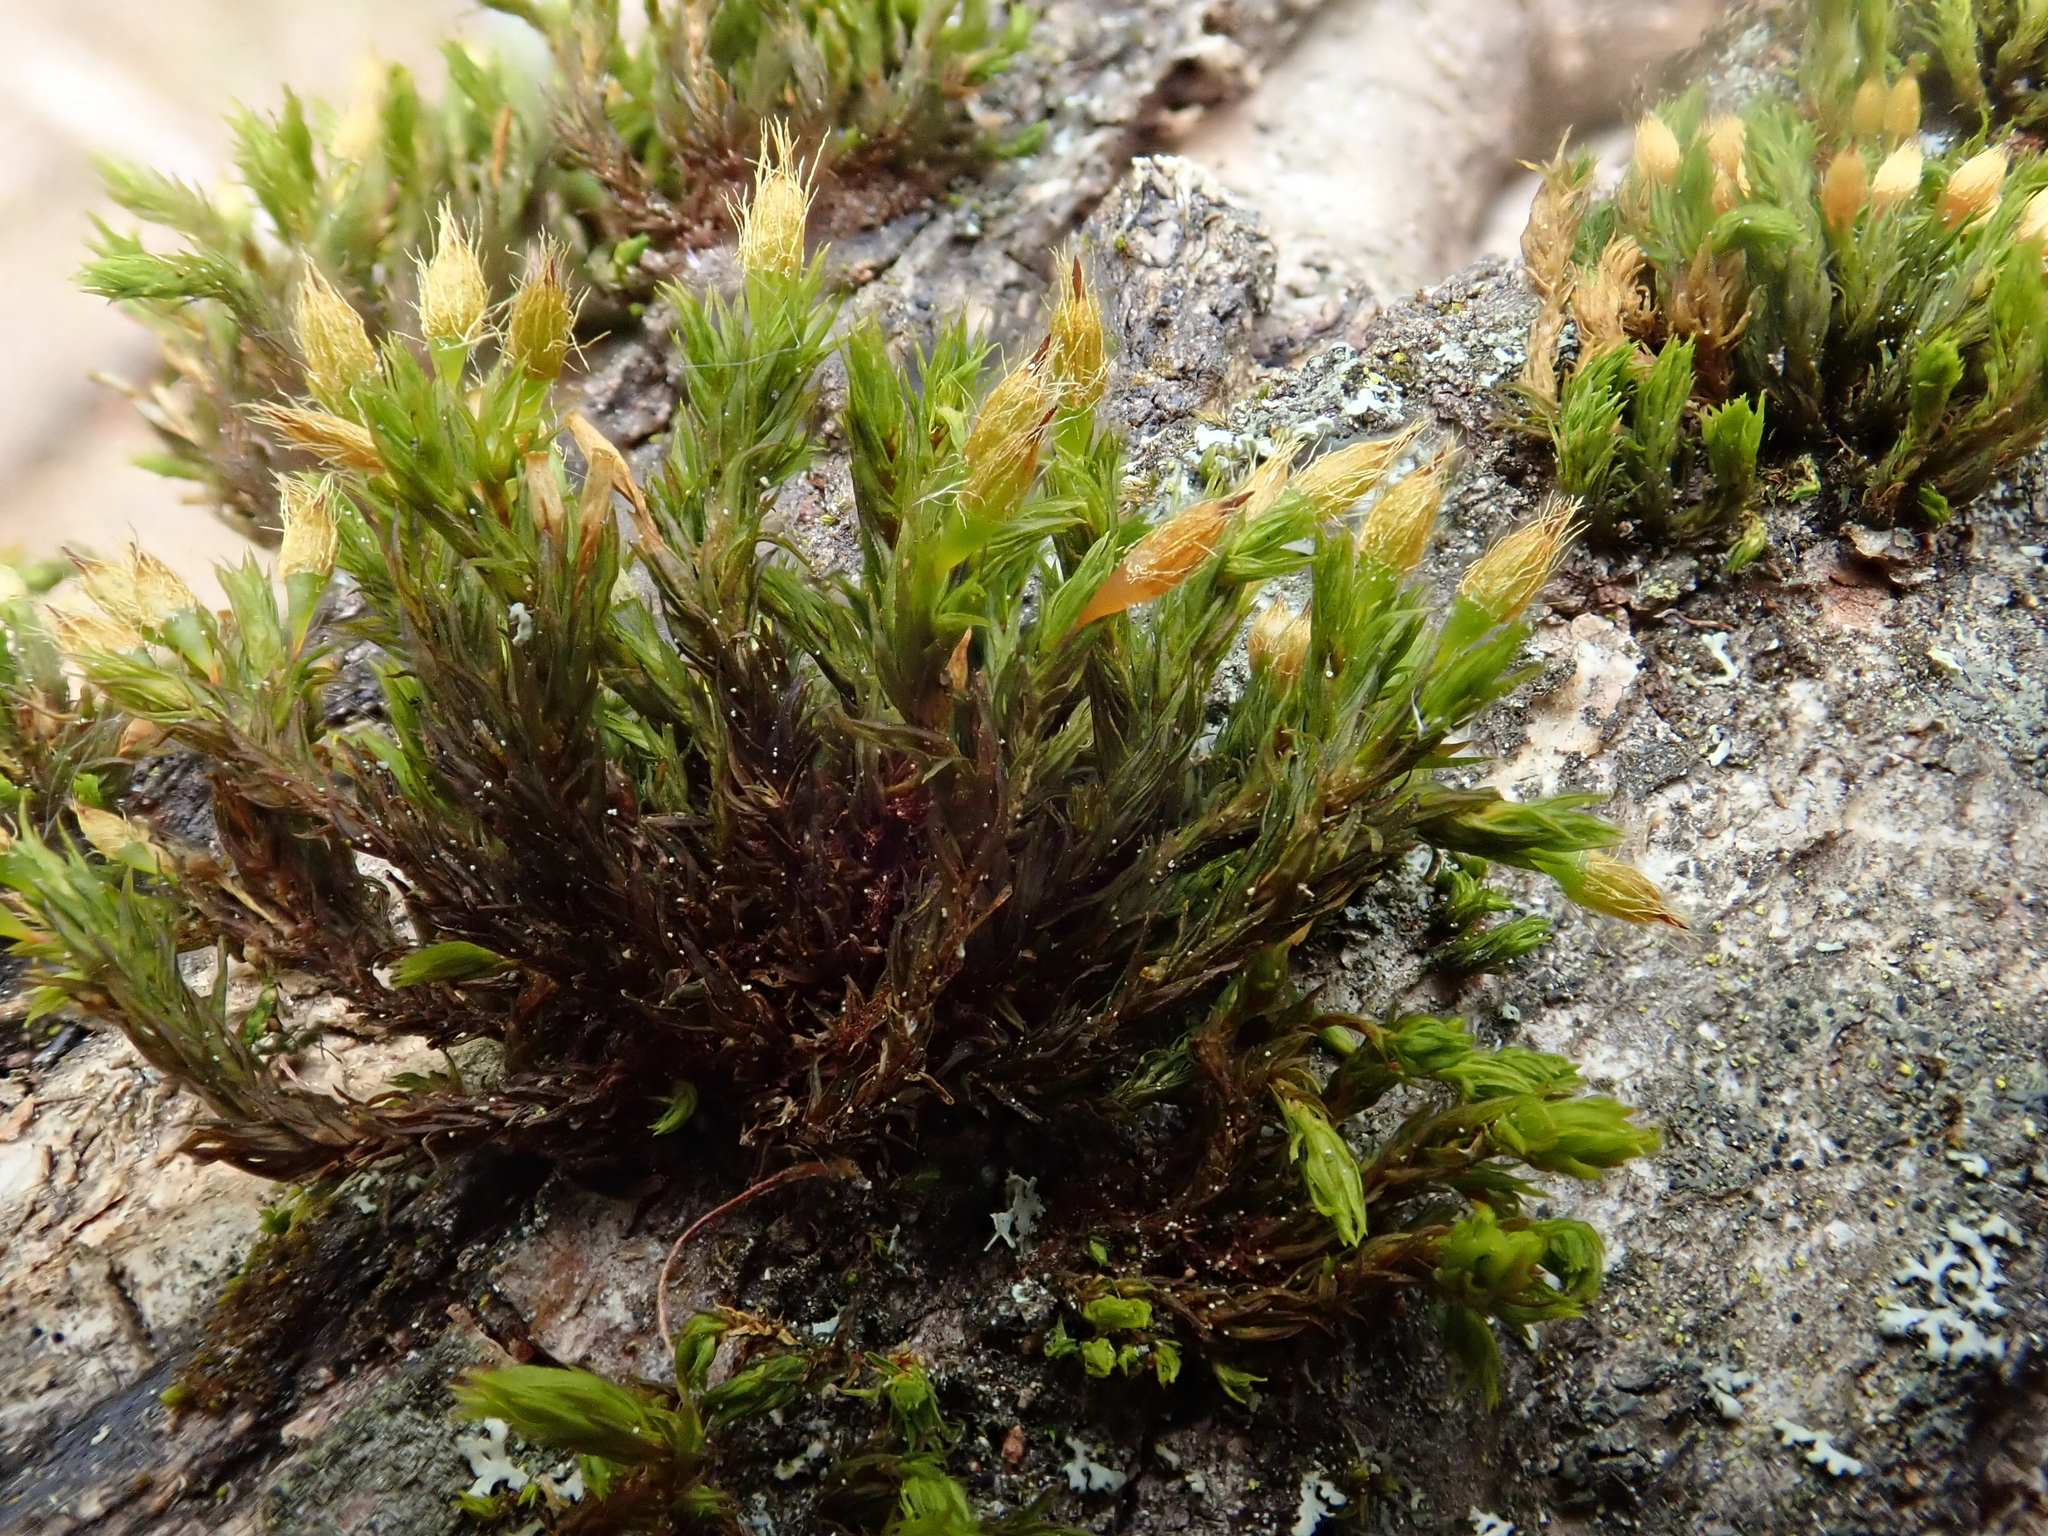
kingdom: Plantae
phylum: Bryophyta
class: Bryopsida
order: Orthotrichales
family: Orthotrichaceae
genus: Lewinskya
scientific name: Lewinskya speciosa
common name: Showy bristle moss
